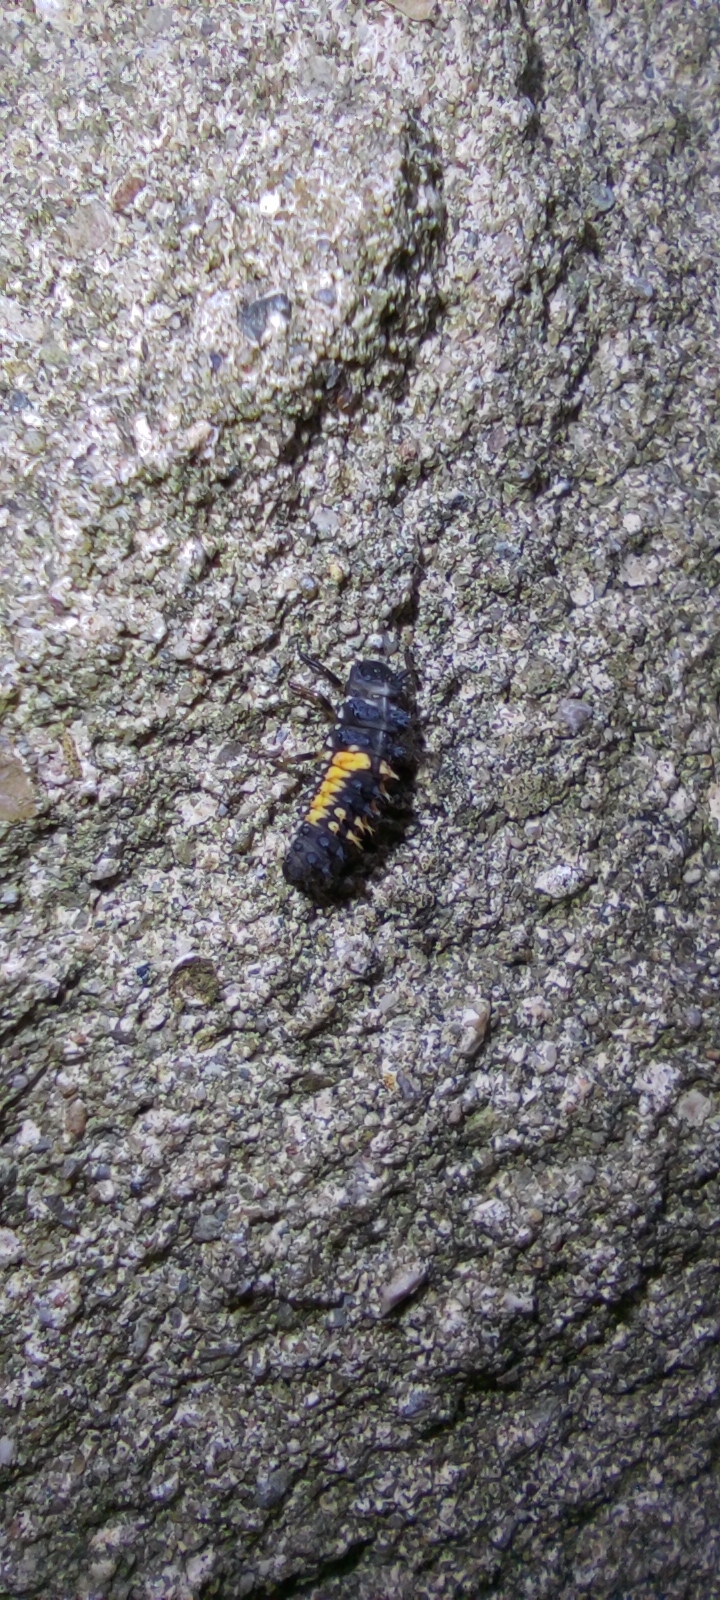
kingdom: Animalia
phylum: Arthropoda
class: Insecta
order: Coleoptera
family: Coccinellidae
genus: Harmonia
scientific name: Harmonia axyridis
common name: Harlequin ladybird
